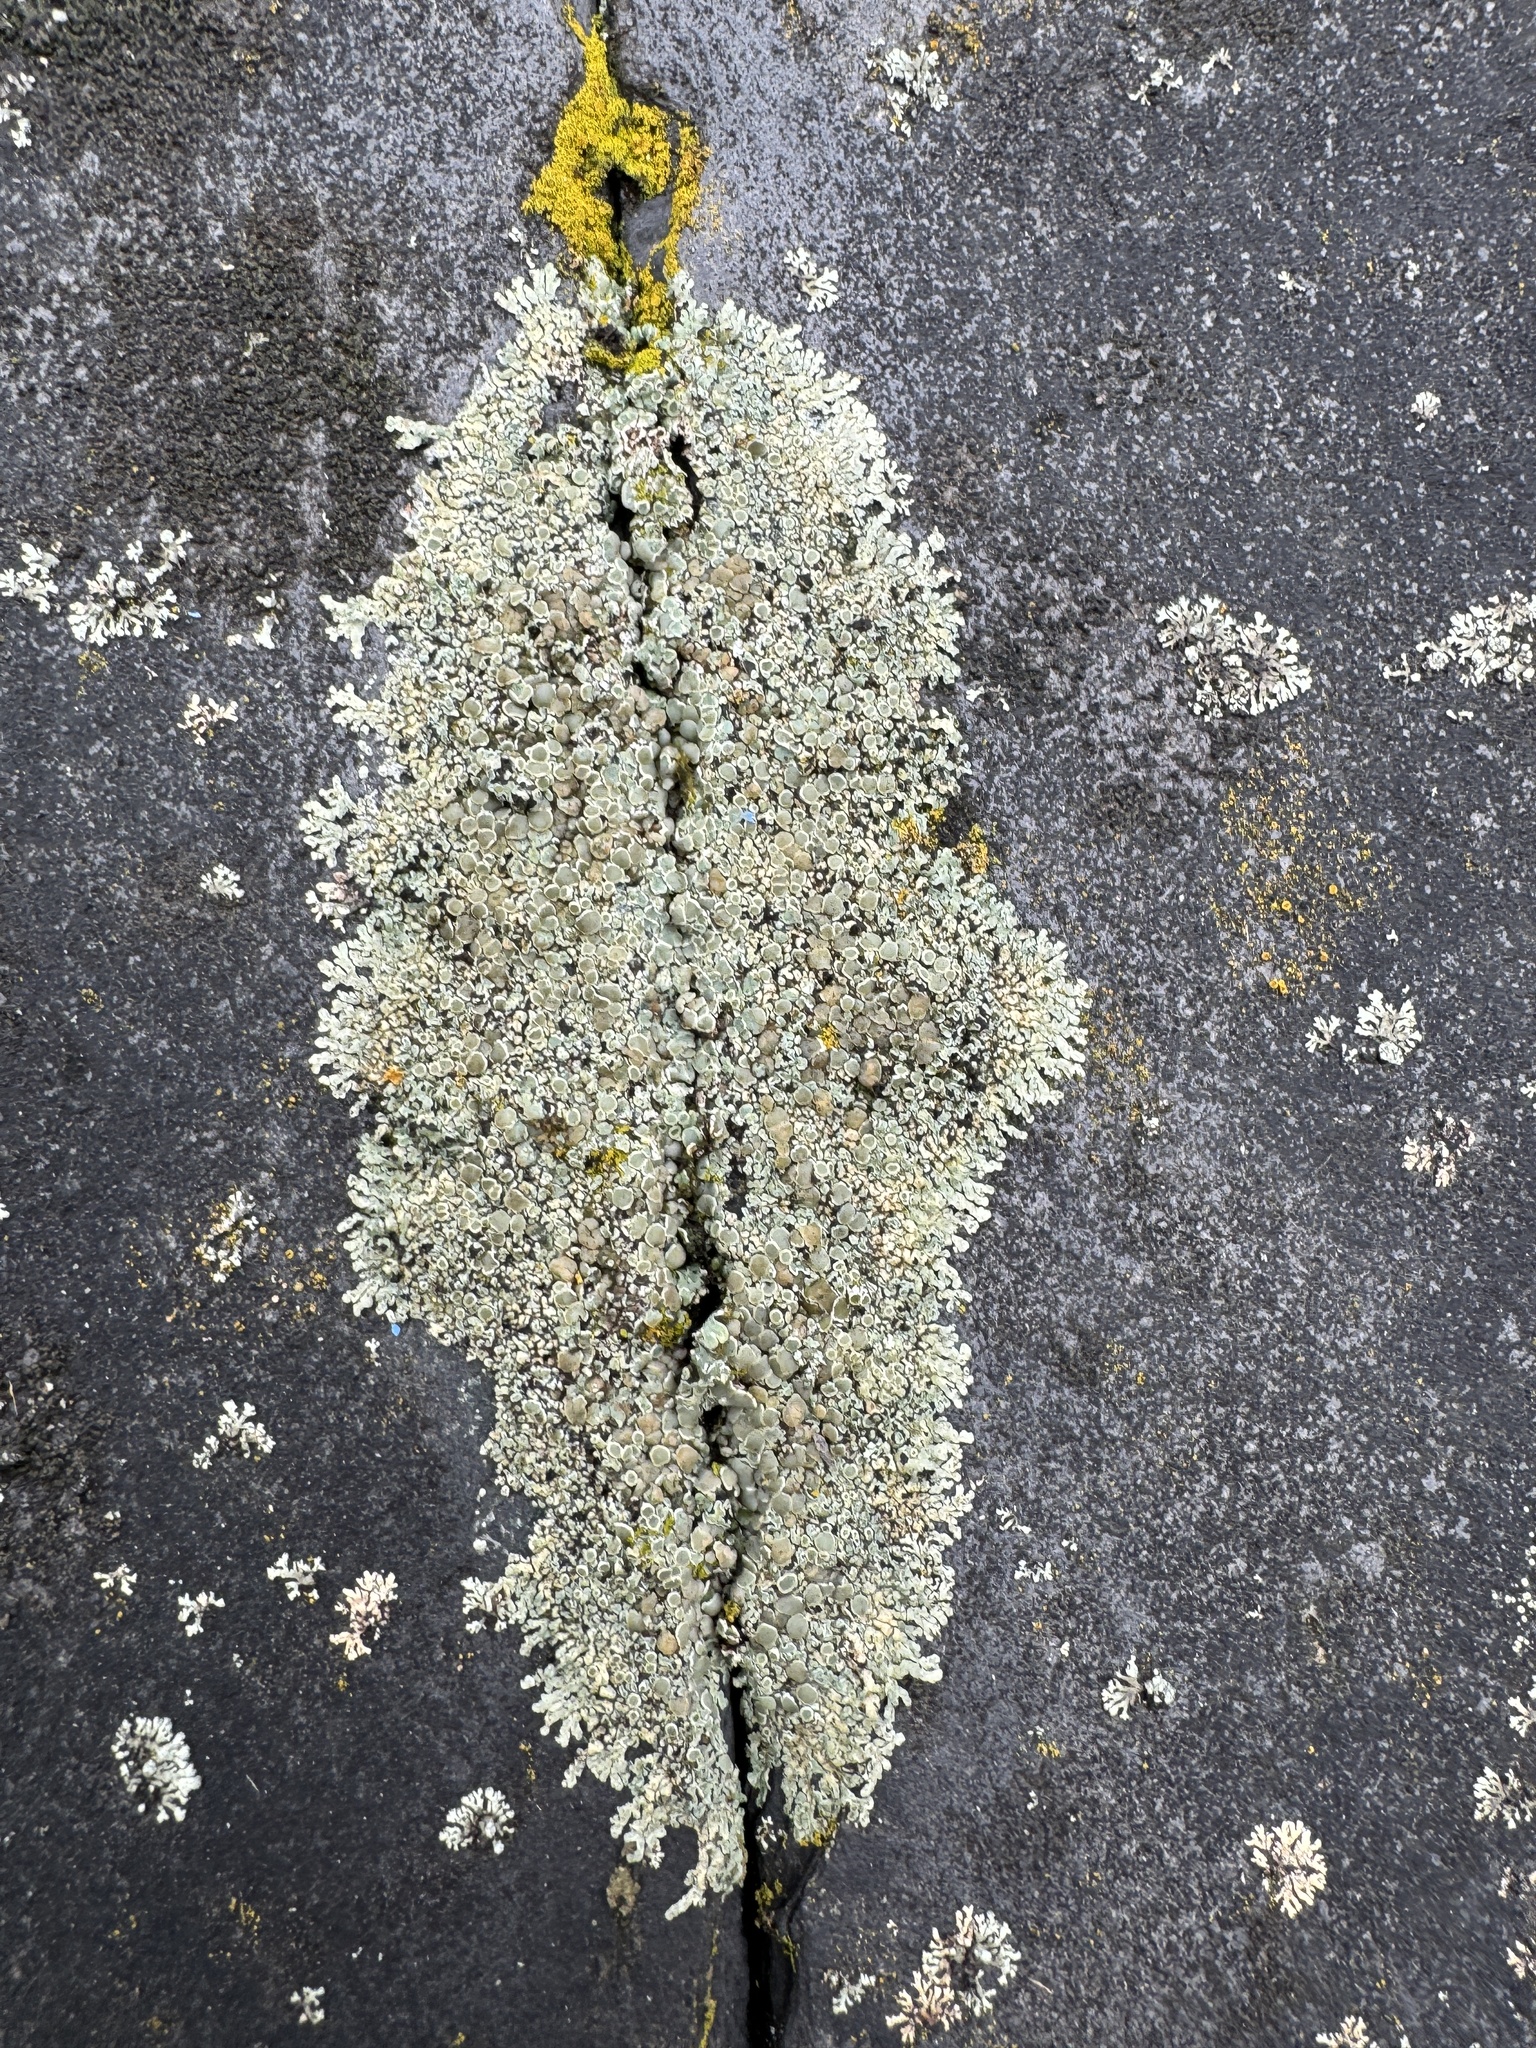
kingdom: Fungi
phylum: Ascomycota
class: Lecanoromycetes
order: Lecanorales
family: Lecanoraceae
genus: Protoparmeliopsis
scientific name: Protoparmeliopsis muralis
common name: Stonewall rim lichen
